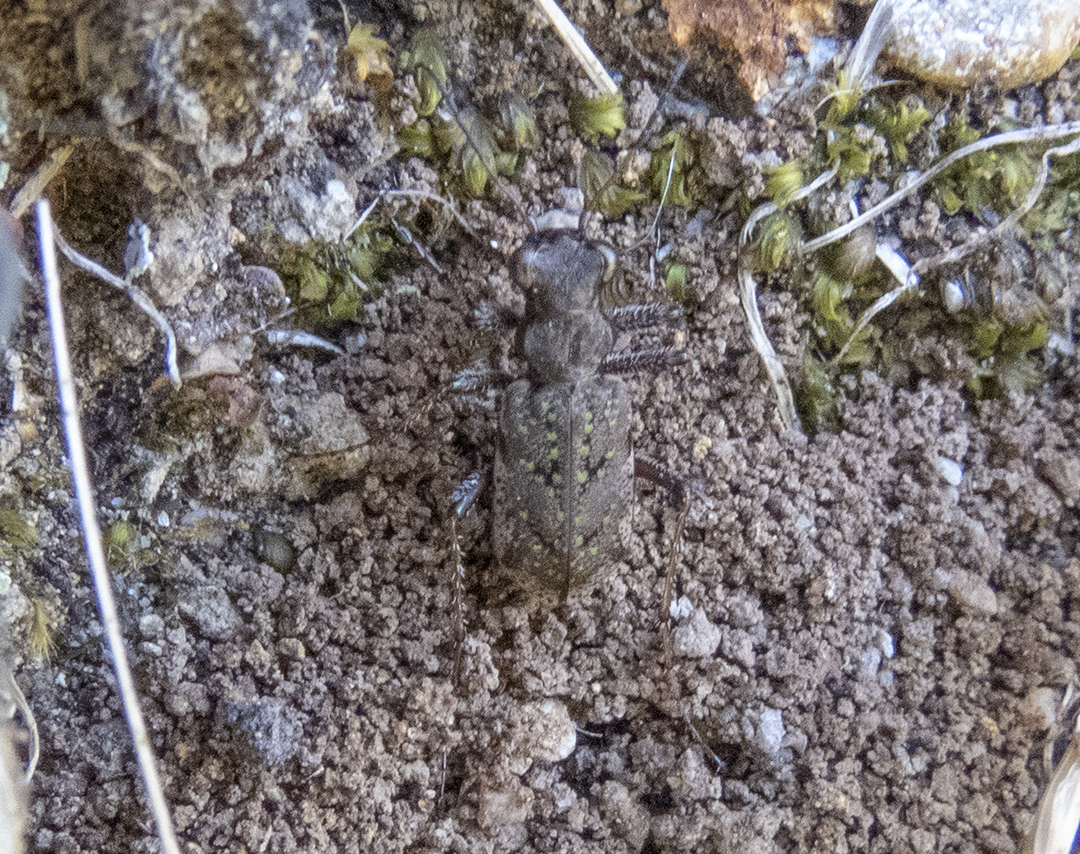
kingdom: Animalia
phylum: Arthropoda
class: Insecta
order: Coleoptera
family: Carabidae
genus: Neocicindela
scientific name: Neocicindela parryi
